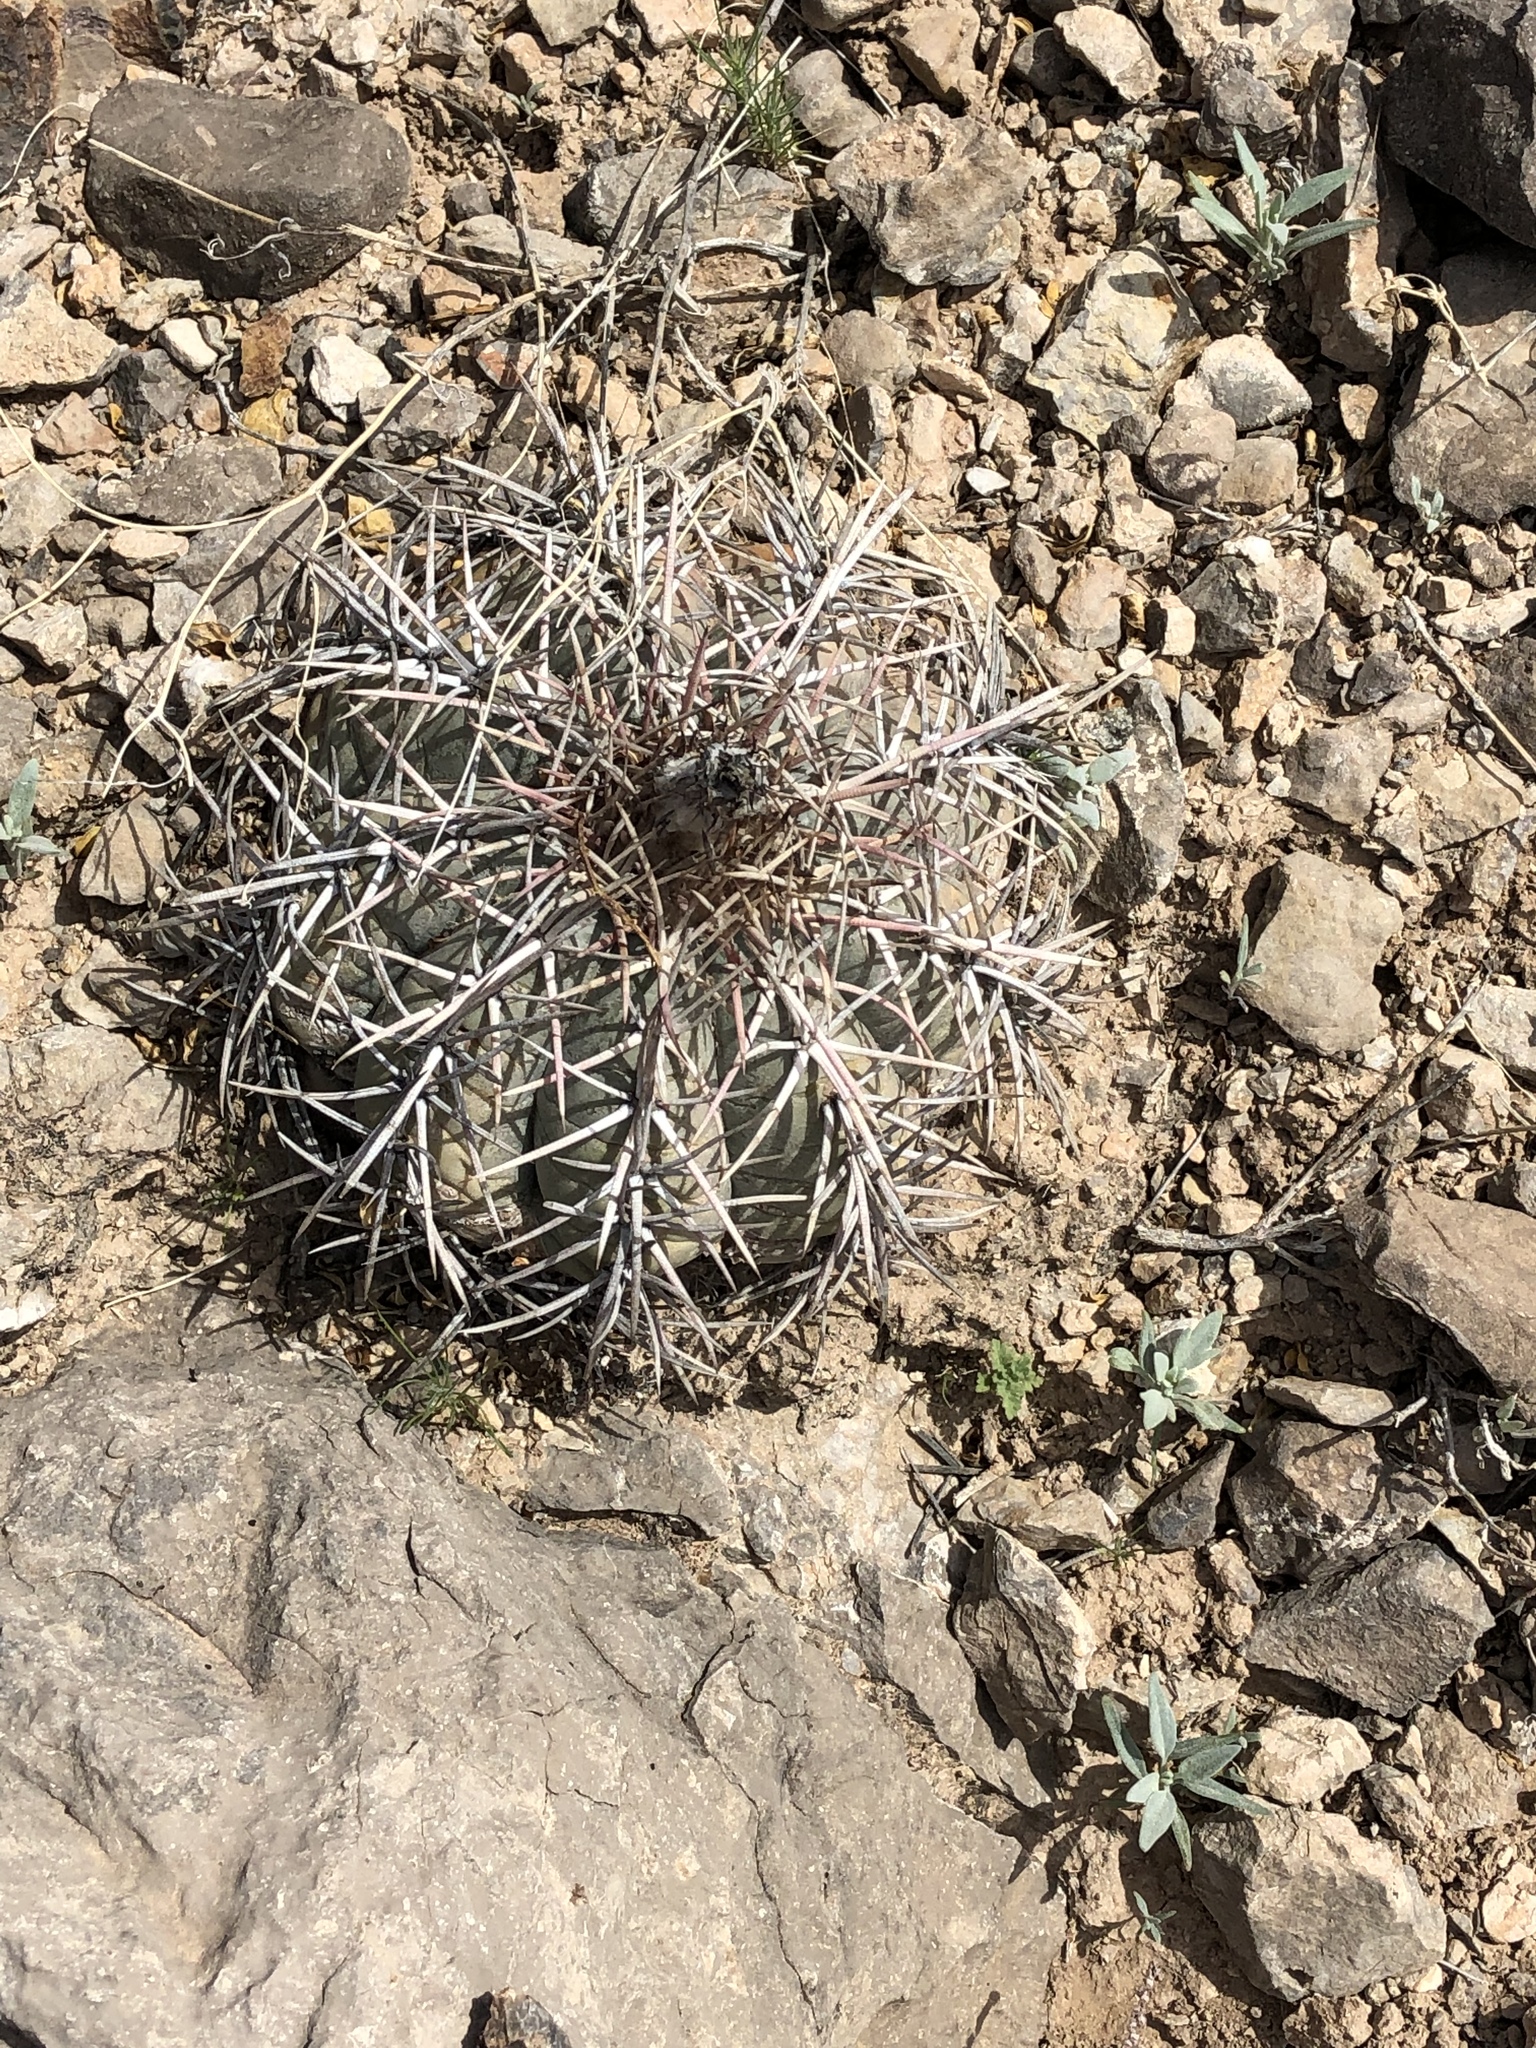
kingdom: Plantae
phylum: Tracheophyta
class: Magnoliopsida
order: Caryophyllales
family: Cactaceae
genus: Echinocactus
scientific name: Echinocactus horizonthalonius
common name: Devilshead
